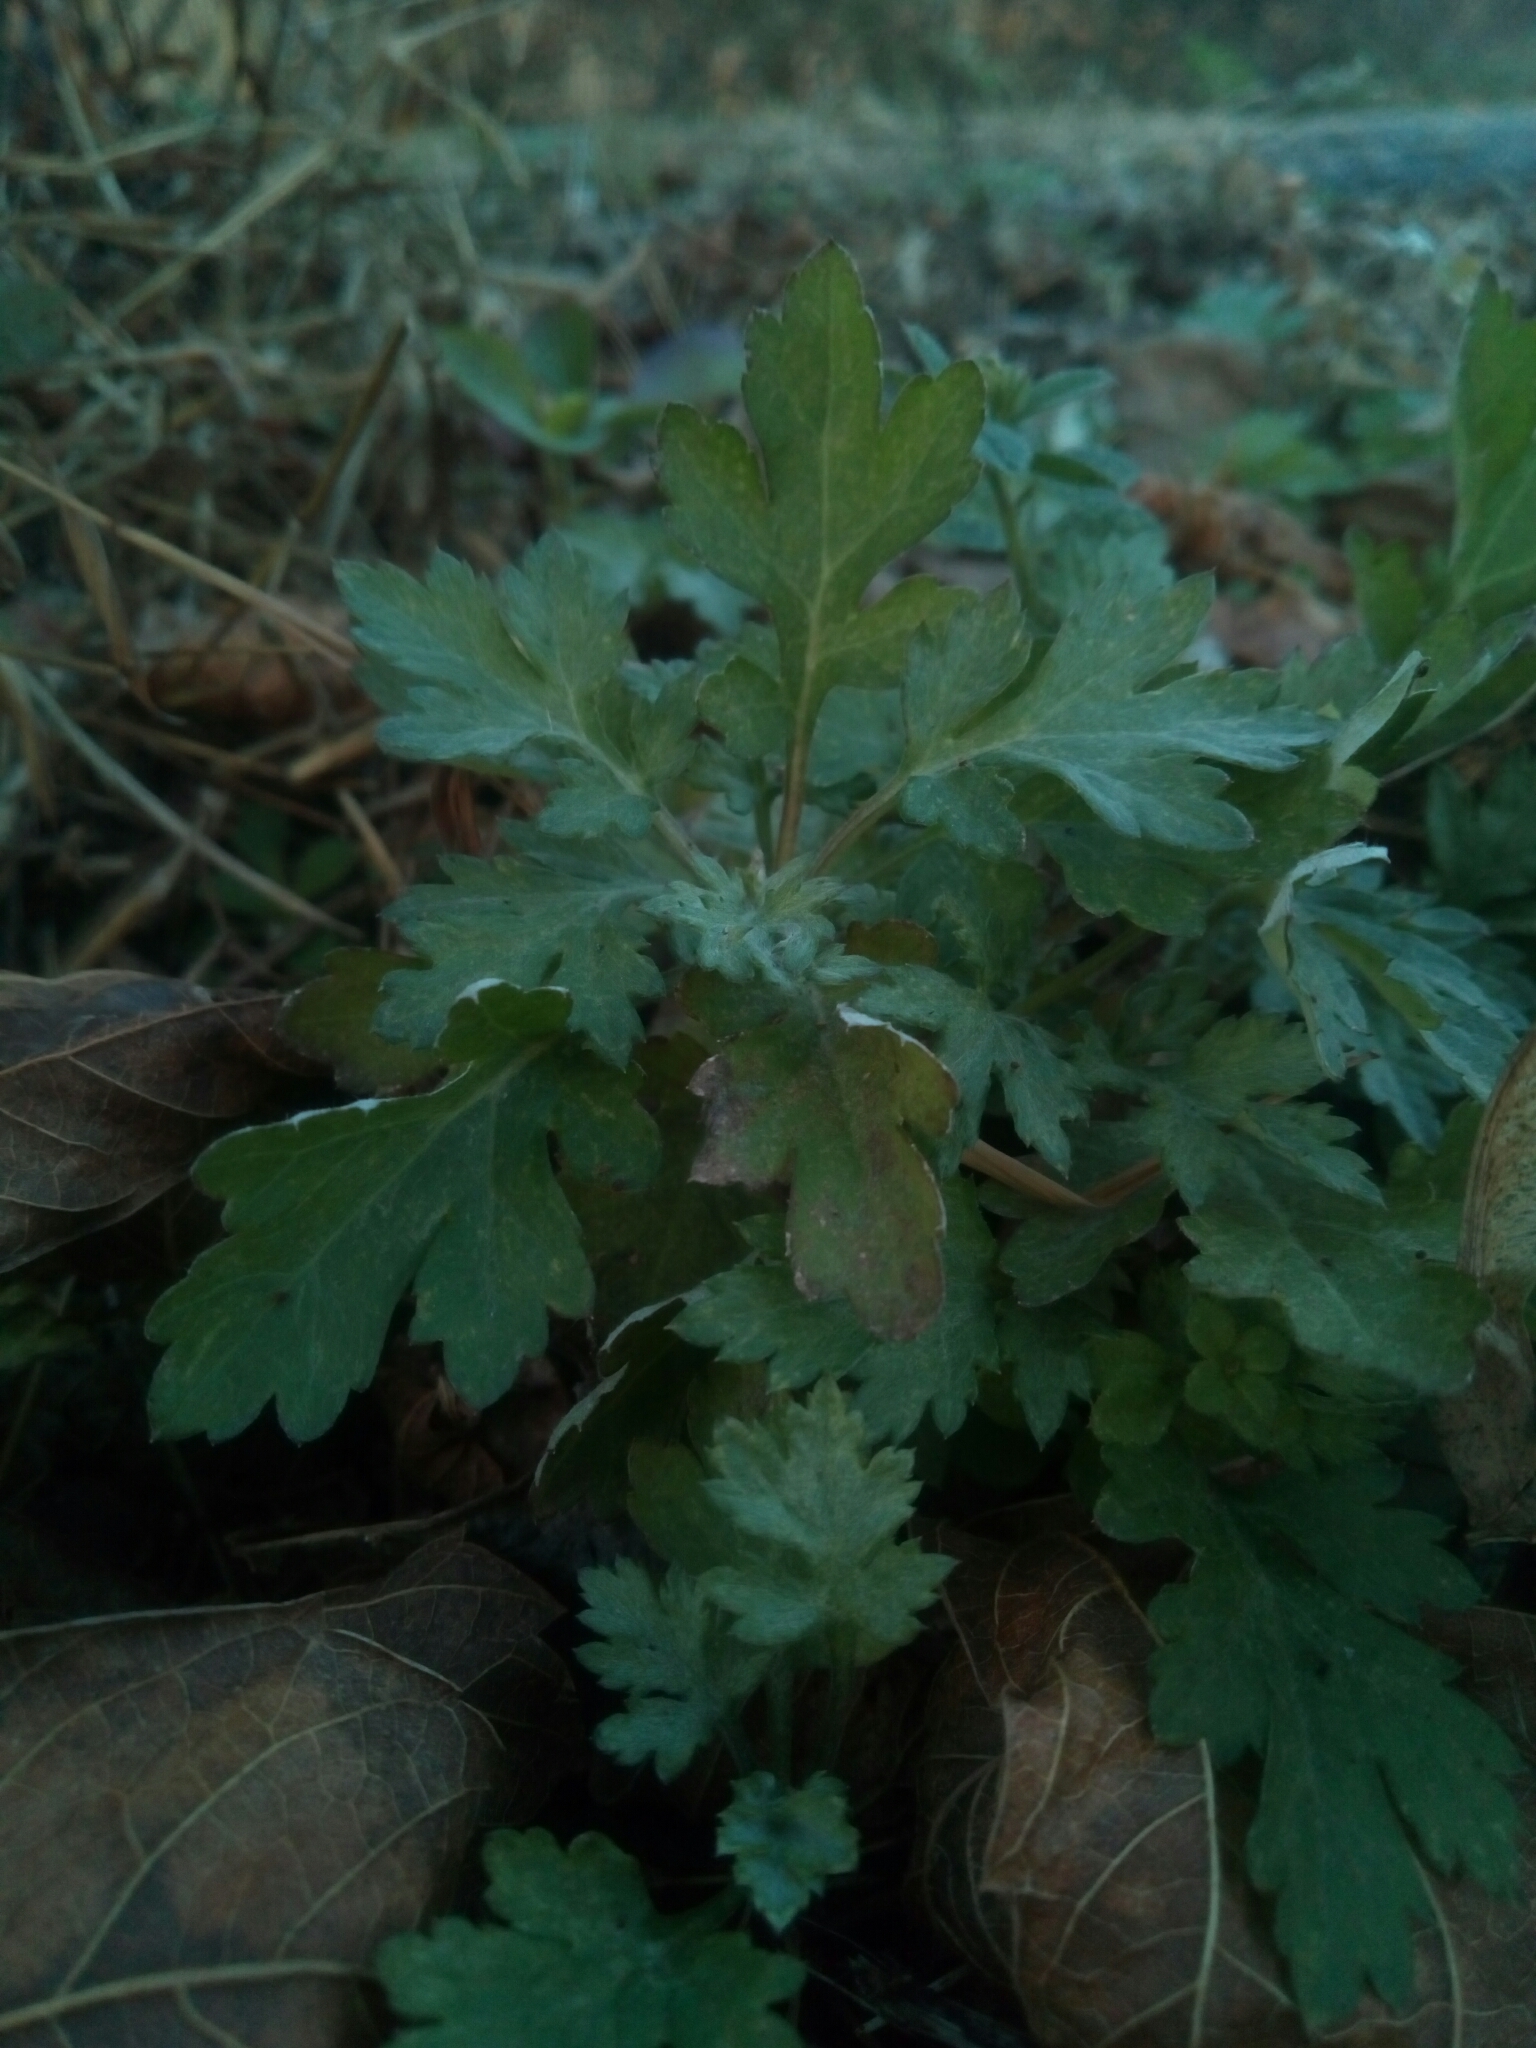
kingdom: Plantae
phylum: Tracheophyta
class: Magnoliopsida
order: Asterales
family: Asteraceae
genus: Artemisia
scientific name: Artemisia vulgaris
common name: Mugwort
